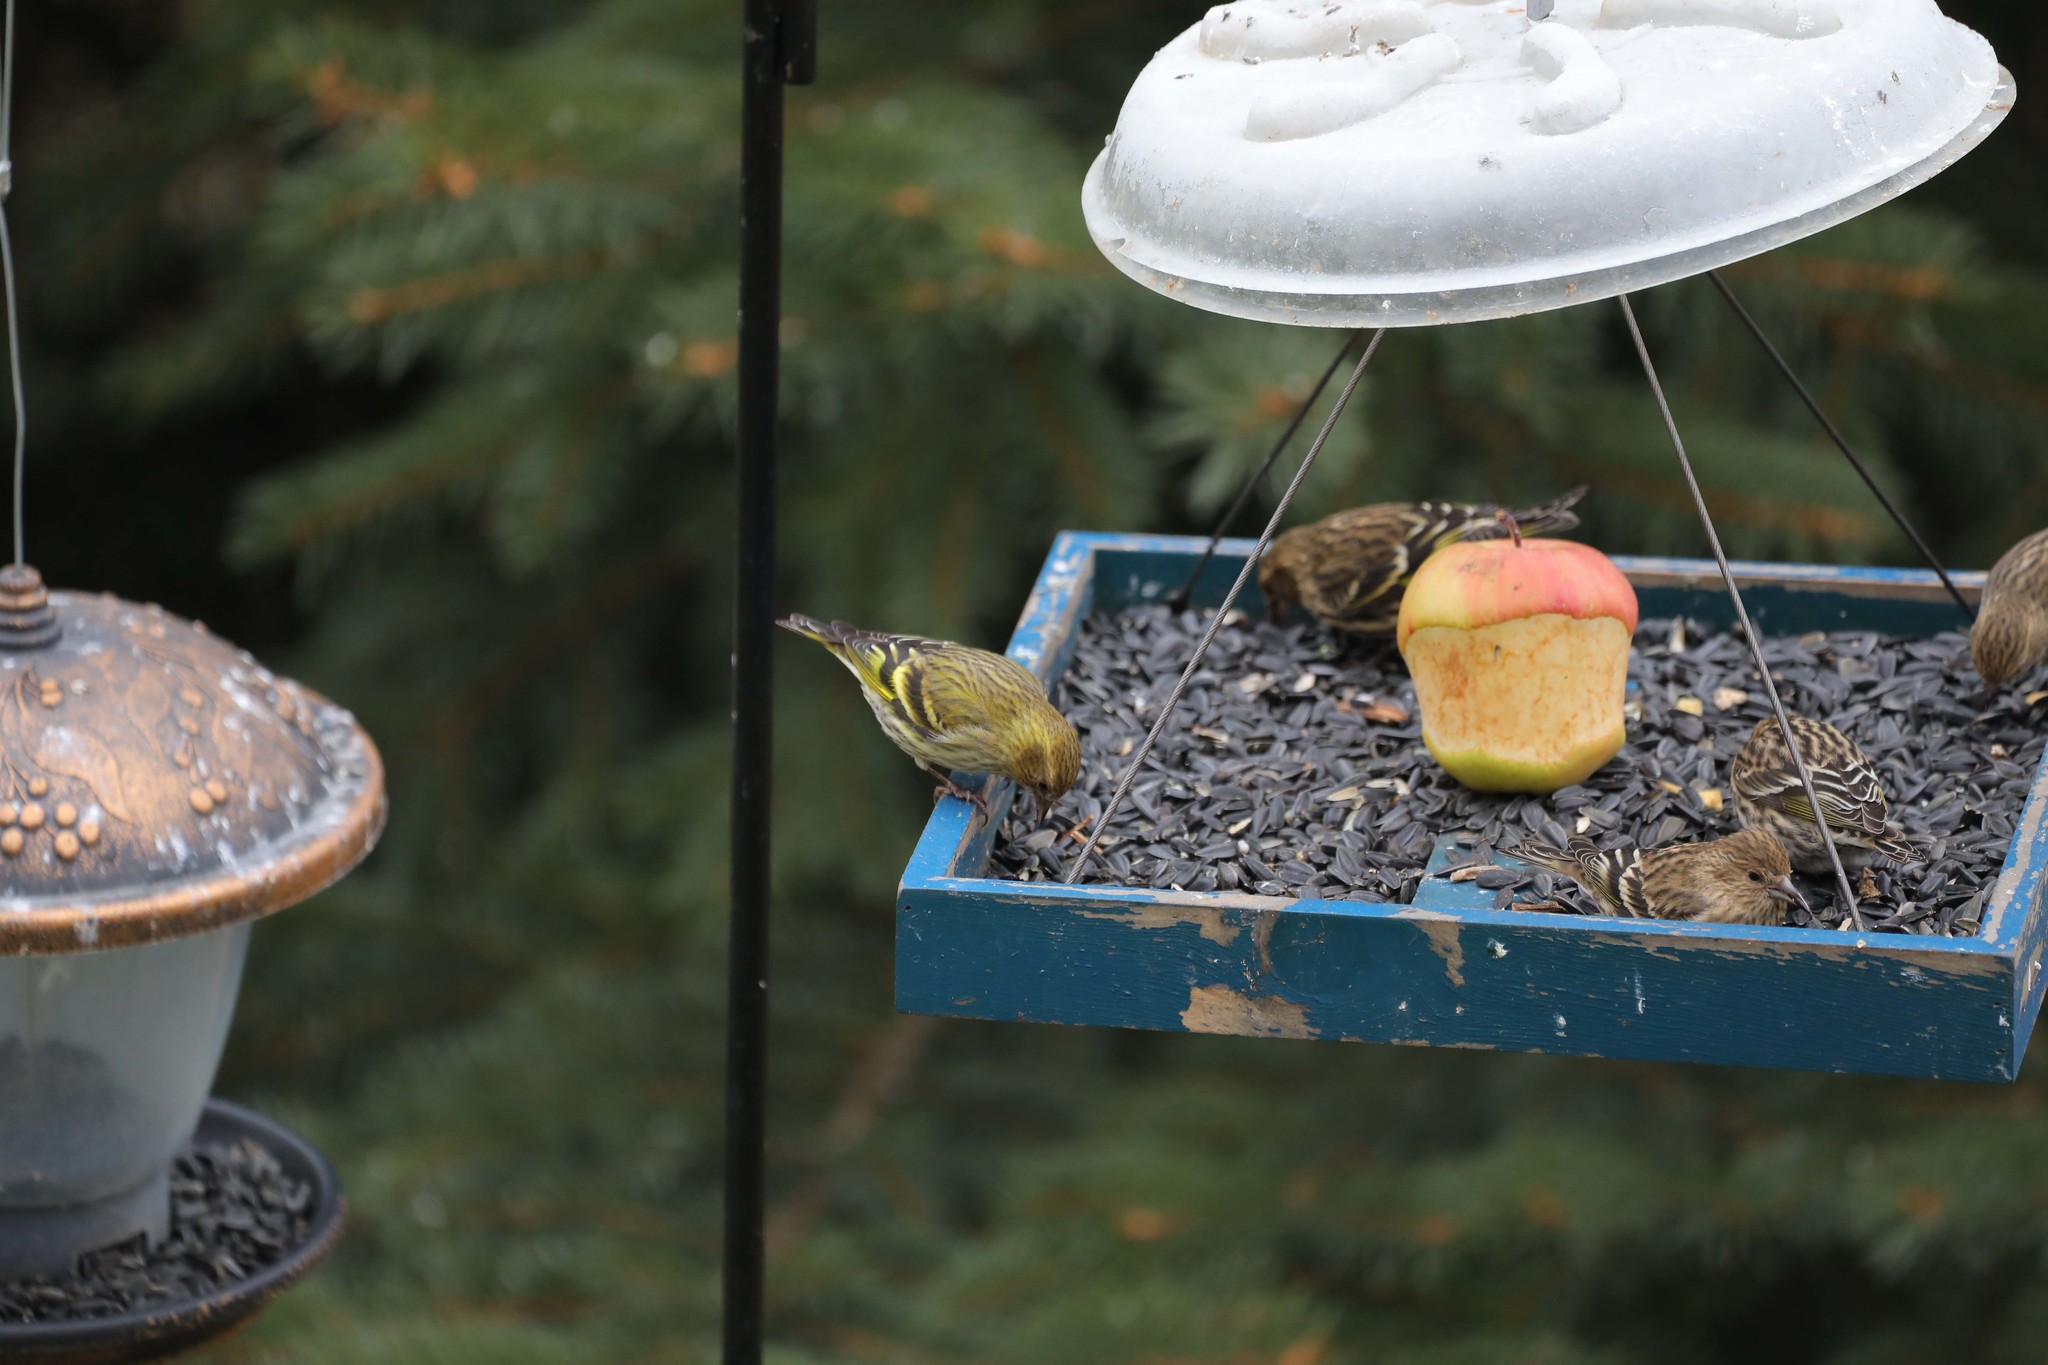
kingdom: Animalia
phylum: Chordata
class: Aves
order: Passeriformes
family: Fringillidae
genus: Spinus
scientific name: Spinus pinus
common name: Pine siskin
